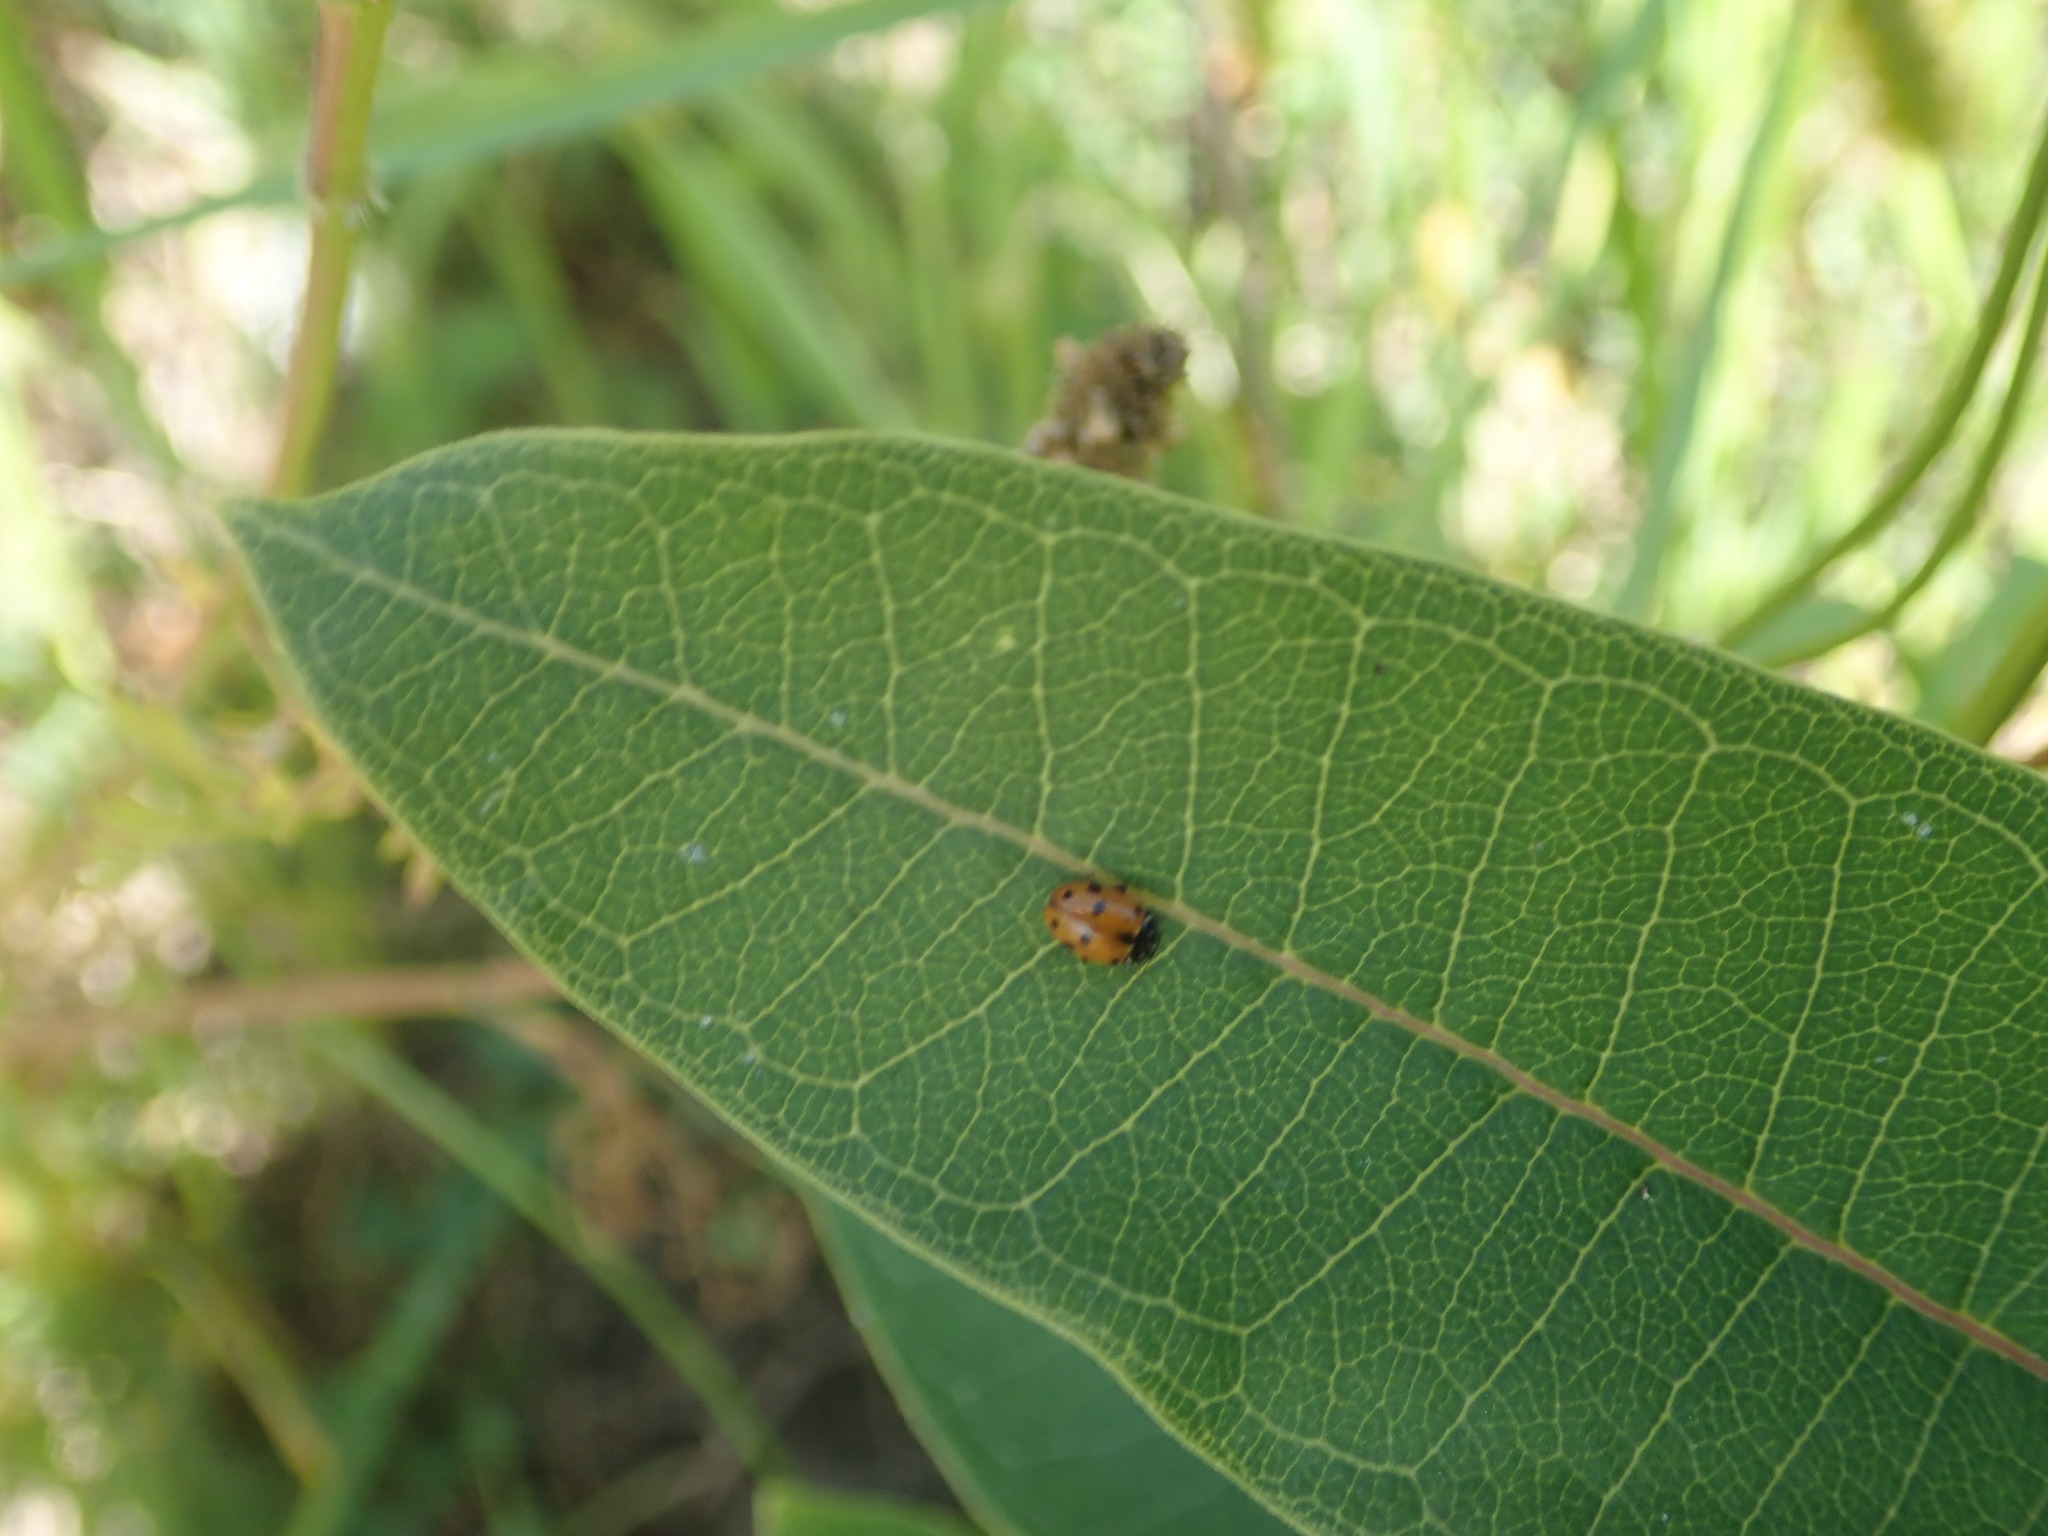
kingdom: Animalia
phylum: Arthropoda
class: Insecta
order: Coleoptera
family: Coccinellidae
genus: Hippodamia
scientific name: Hippodamia variegata
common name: Ladybird beetle
